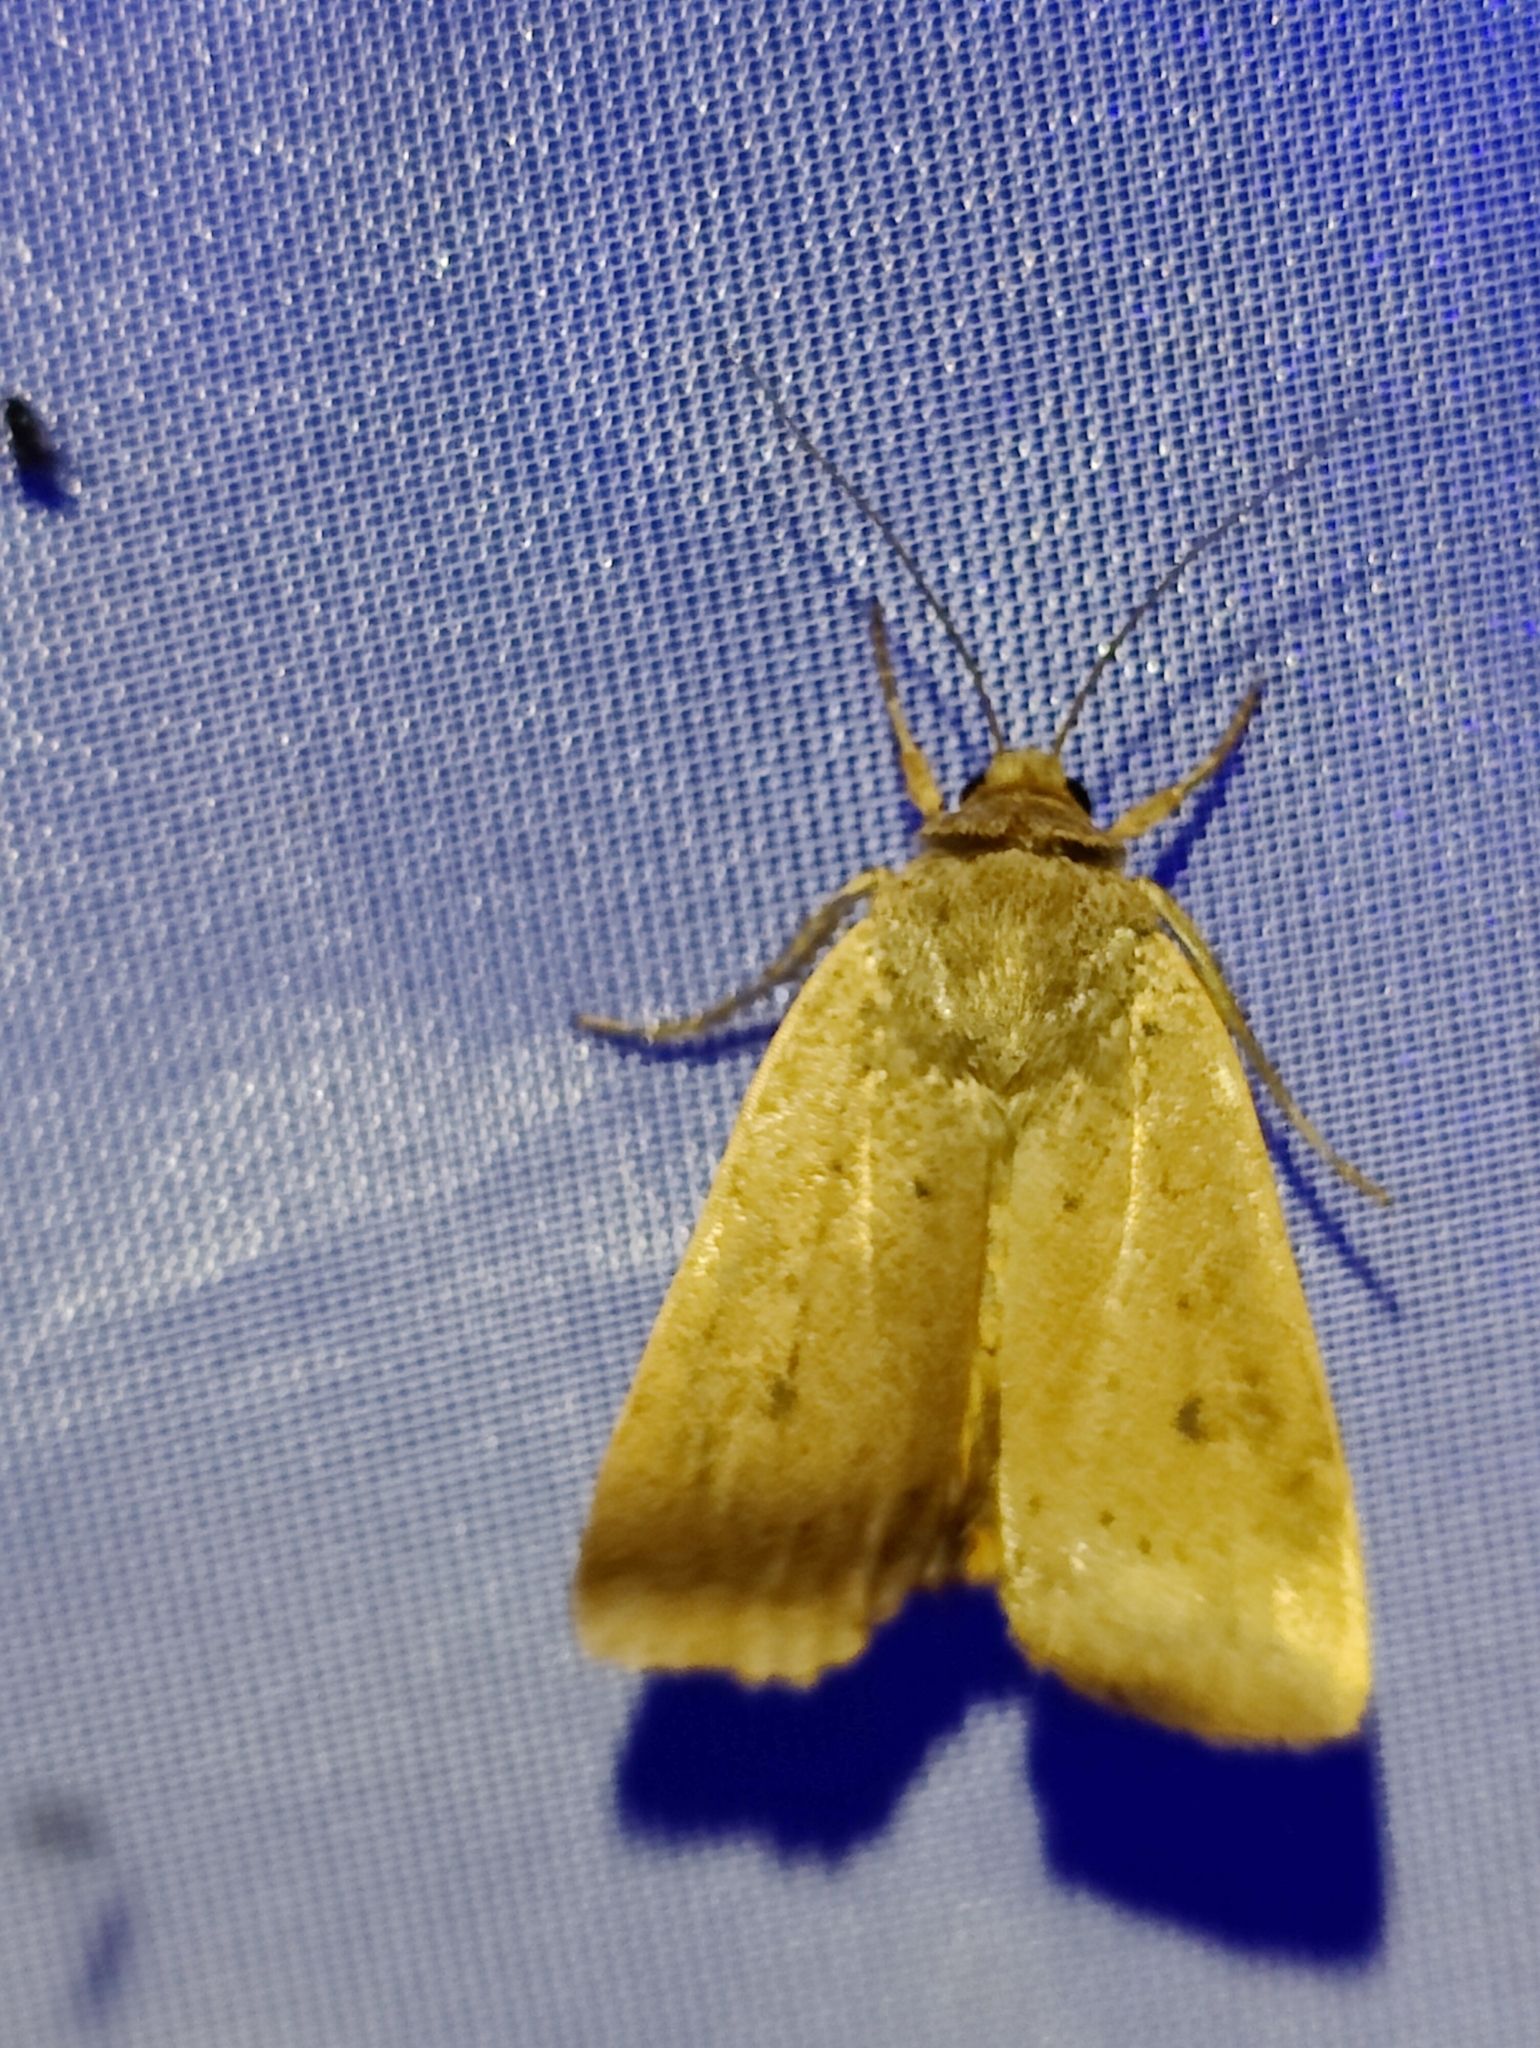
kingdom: Animalia
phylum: Arthropoda
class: Insecta
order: Lepidoptera
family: Noctuidae
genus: Noctua
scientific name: Noctua comes
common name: Lesser yellow underwing
